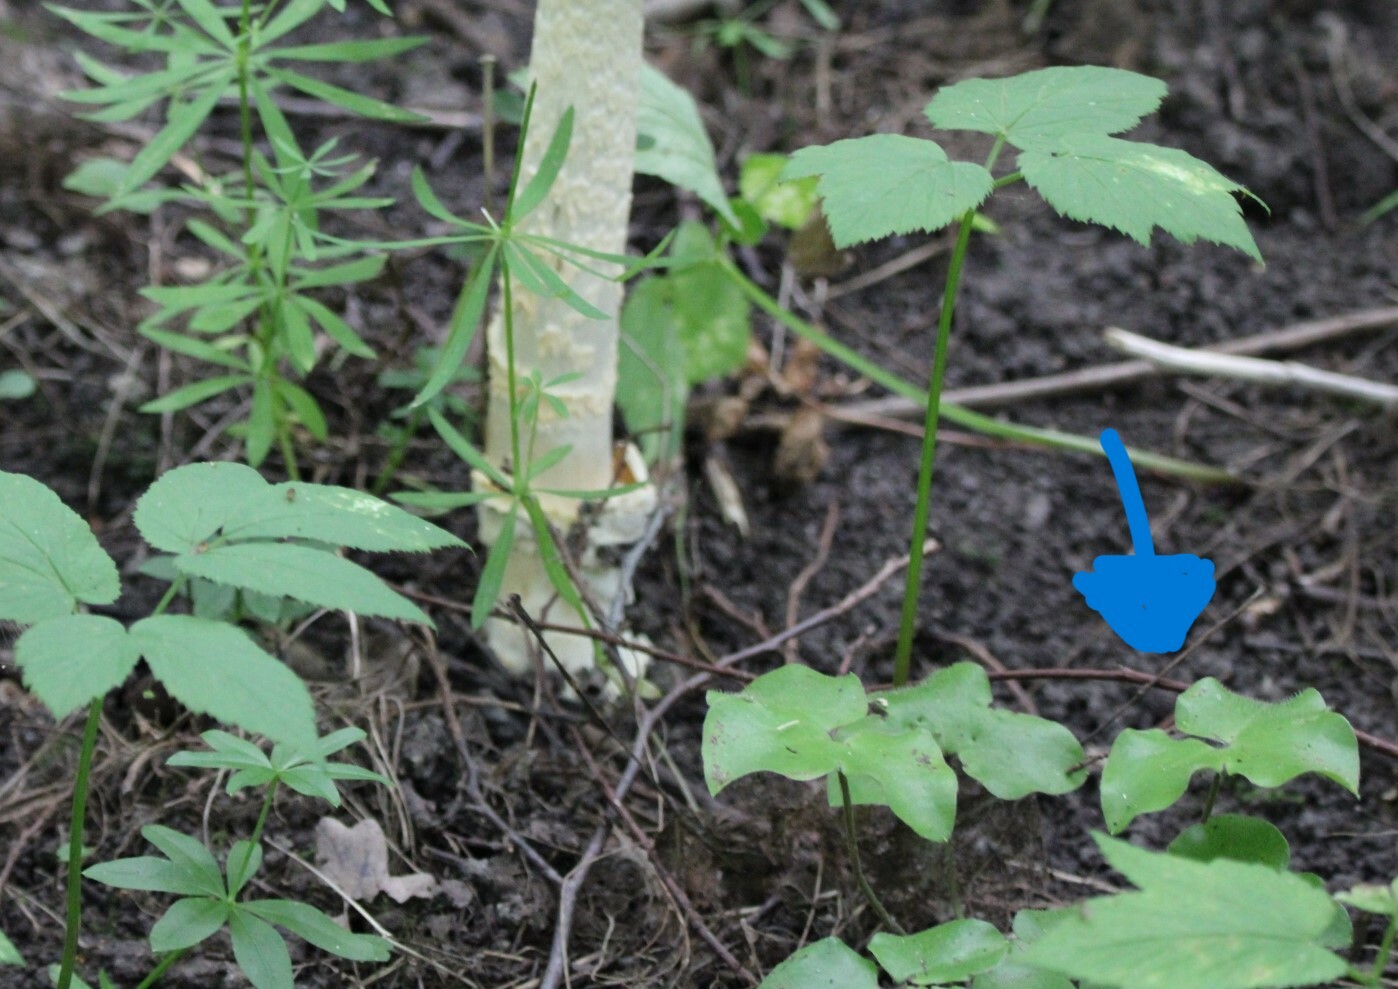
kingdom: Plantae
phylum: Tracheophyta
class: Magnoliopsida
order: Ranunculales
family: Ranunculaceae
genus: Hepatica
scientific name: Hepatica nobilis
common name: Liverleaf
